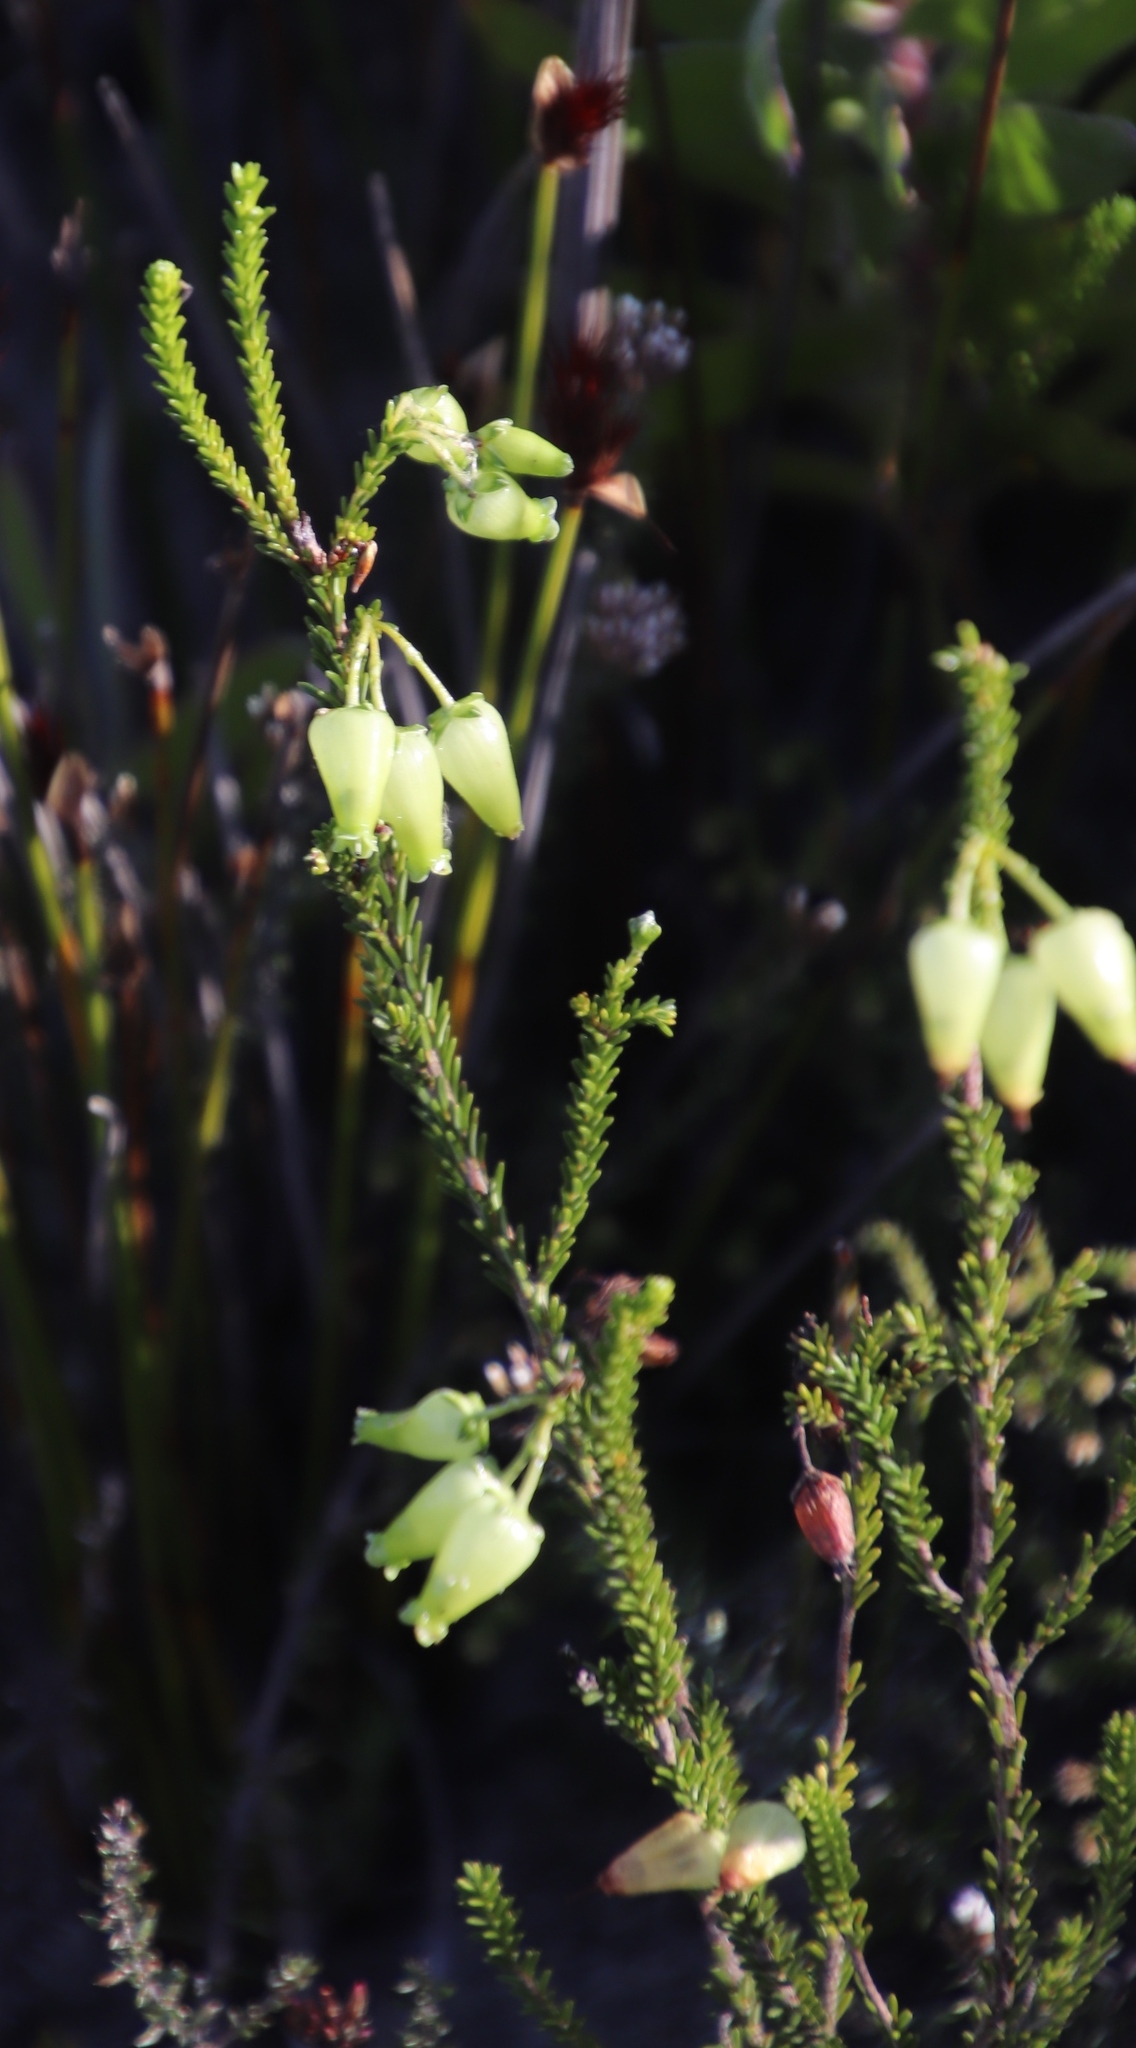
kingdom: Plantae
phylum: Tracheophyta
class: Magnoliopsida
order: Ericales
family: Ericaceae
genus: Erica
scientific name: Erica urna-viridis
